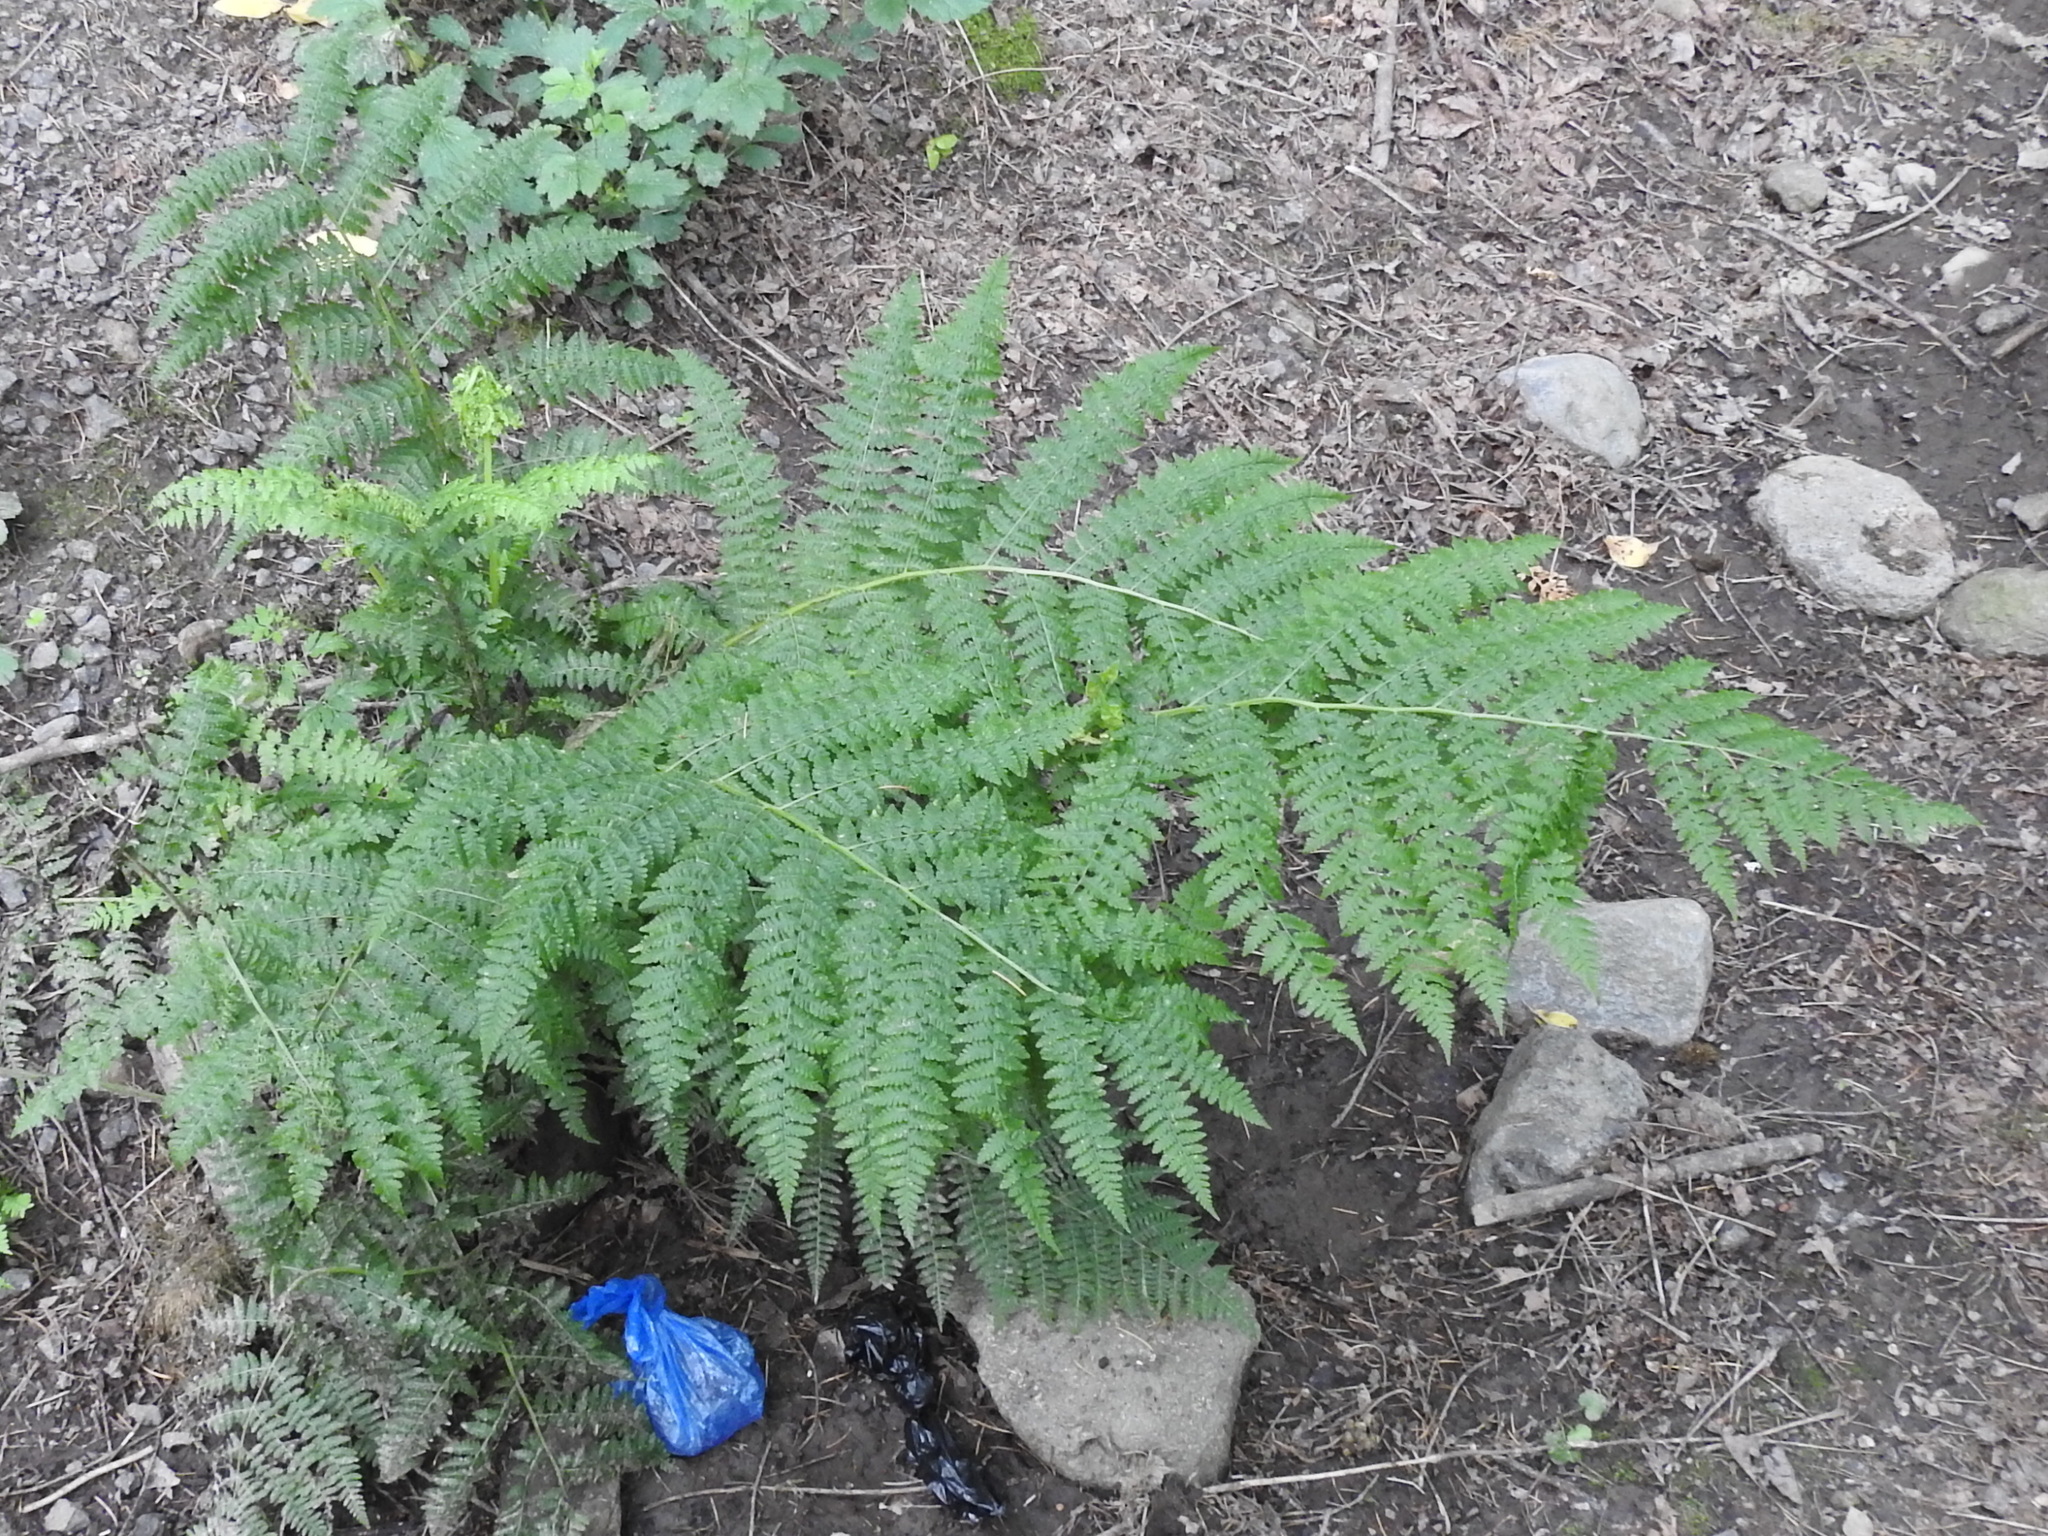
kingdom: Plantae
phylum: Tracheophyta
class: Polypodiopsida
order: Polypodiales
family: Athyriaceae
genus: Athyrium
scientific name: Athyrium cyclosorum
